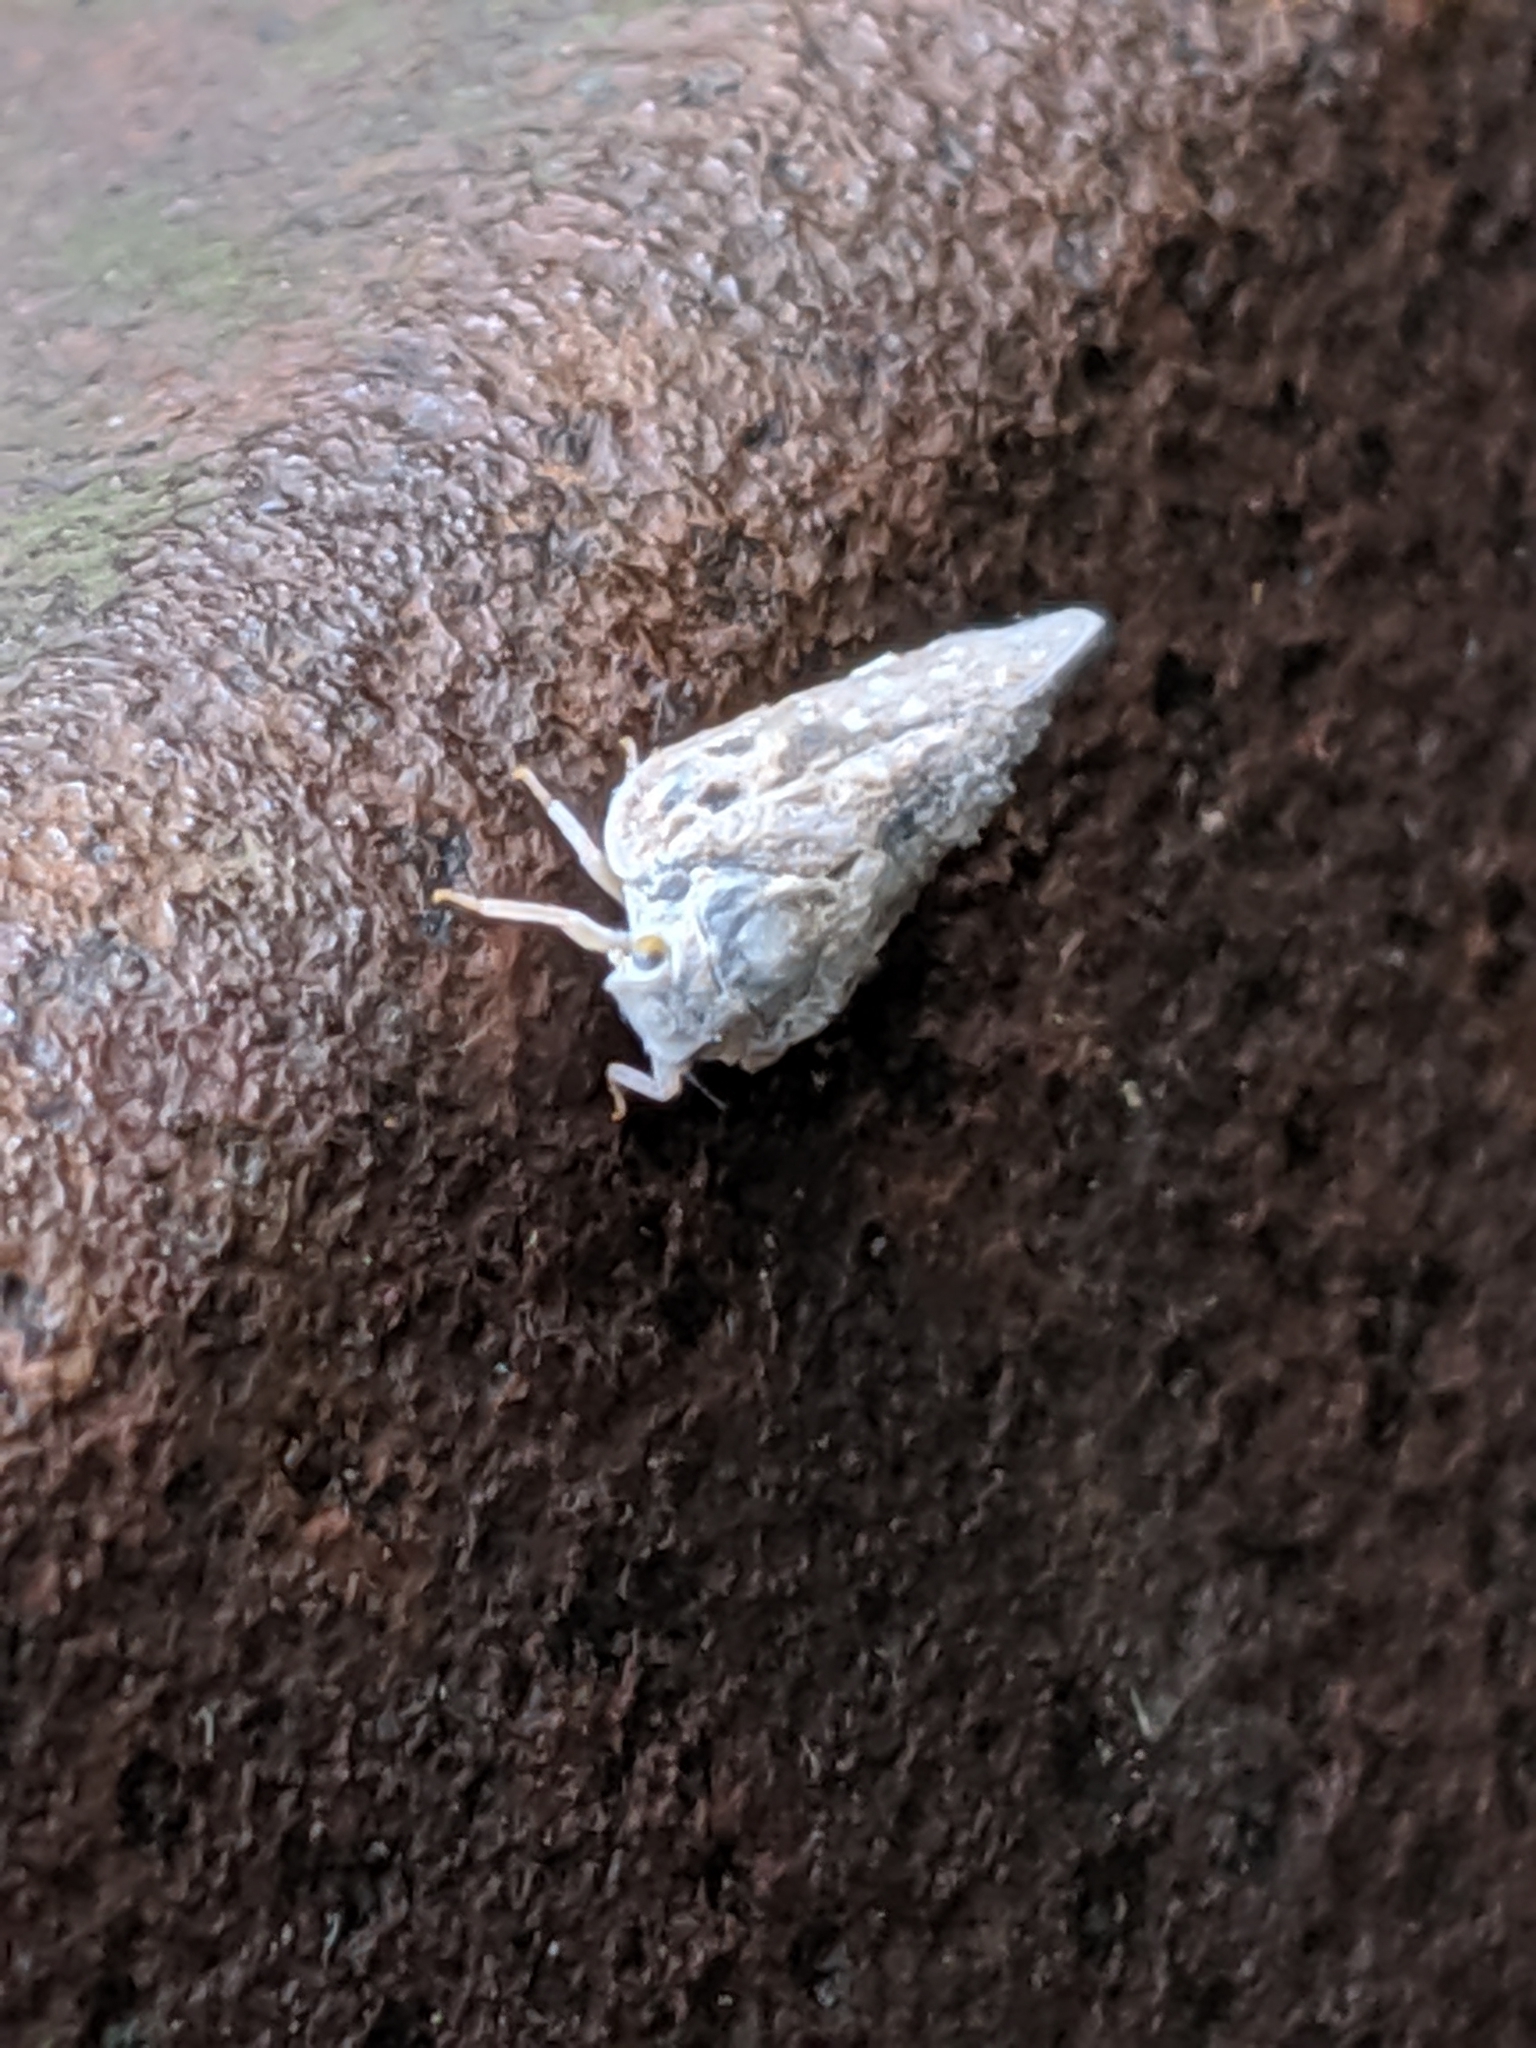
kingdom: Animalia
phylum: Arthropoda
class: Insecta
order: Hemiptera
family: Flatidae
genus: Metcalfa
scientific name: Metcalfa pruinosa
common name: Citrus flatid planthopper
